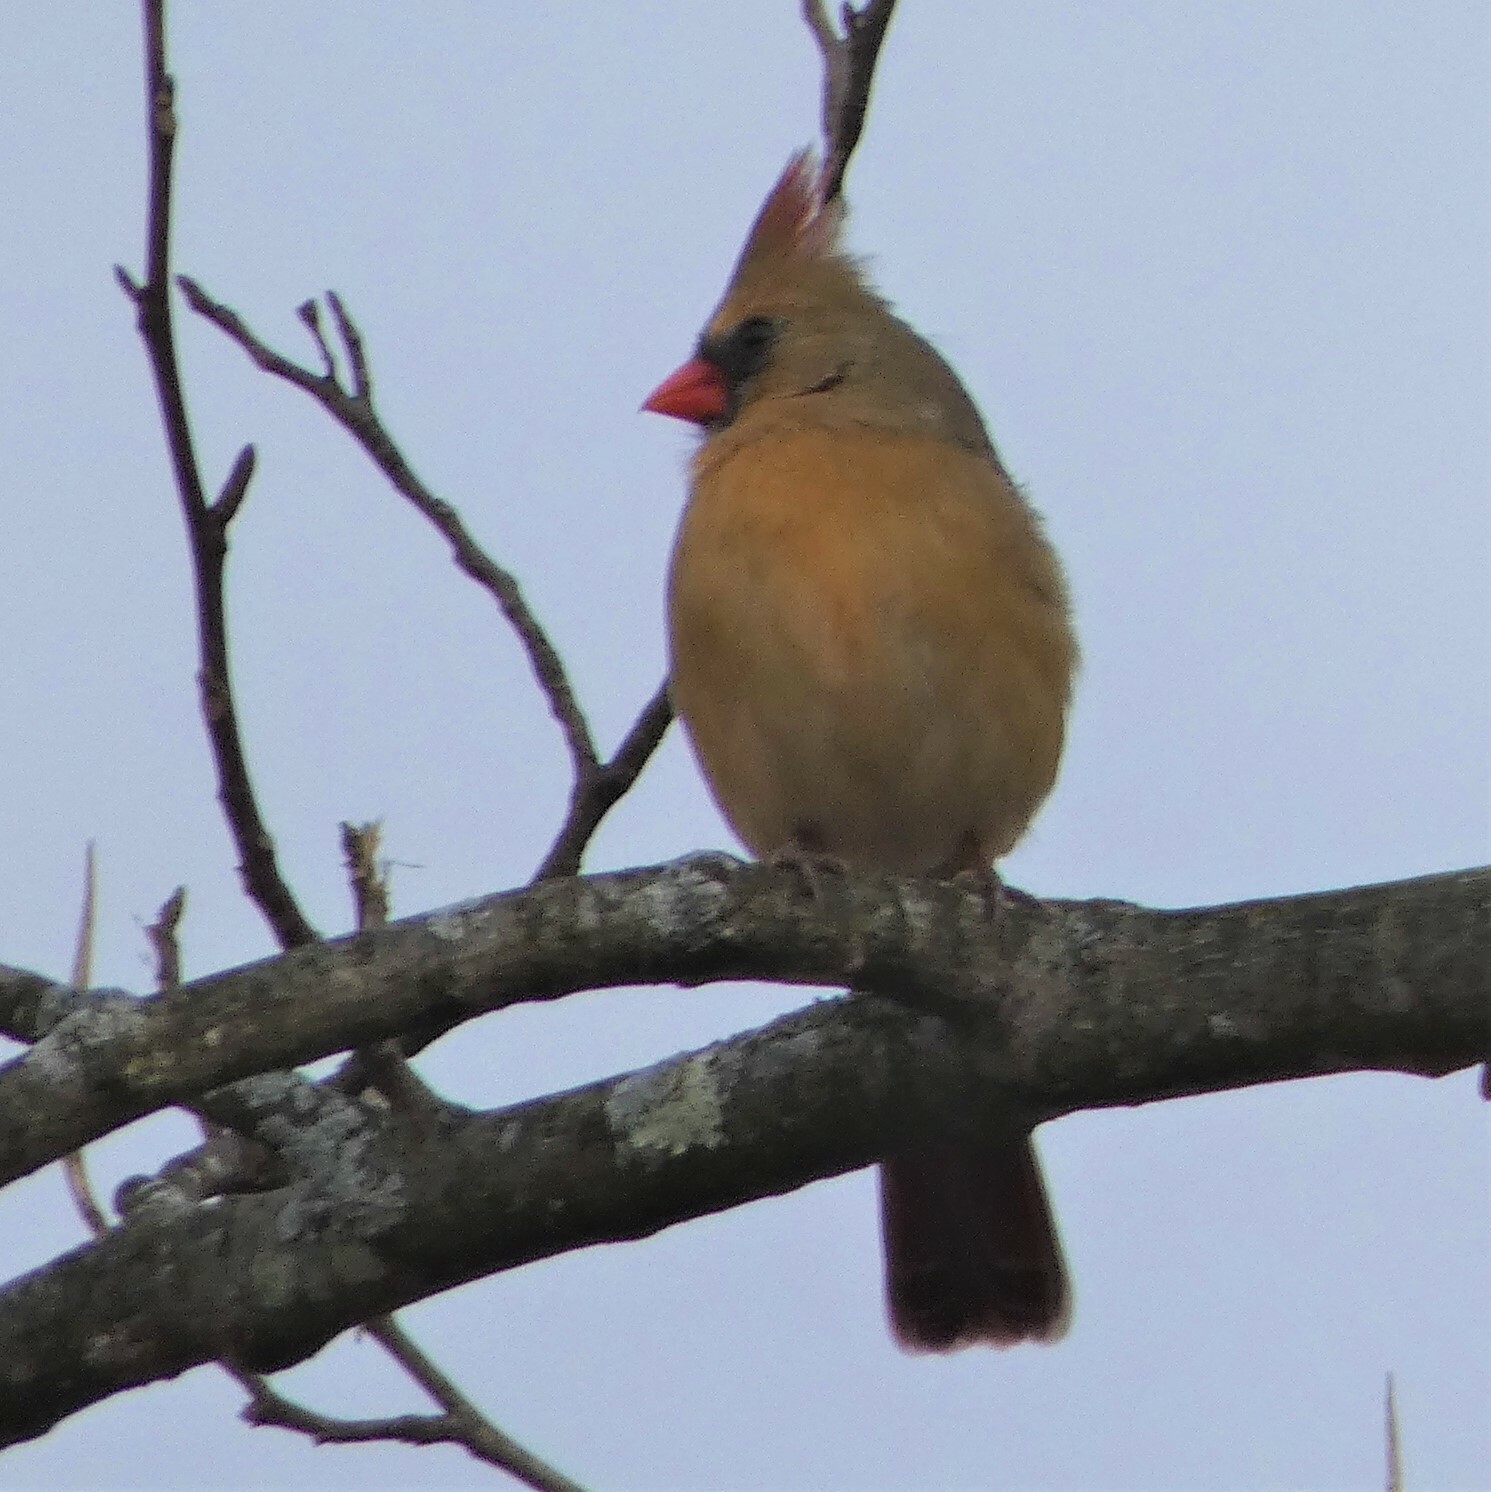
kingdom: Animalia
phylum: Chordata
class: Aves
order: Passeriformes
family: Cardinalidae
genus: Cardinalis
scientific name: Cardinalis cardinalis
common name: Northern cardinal
